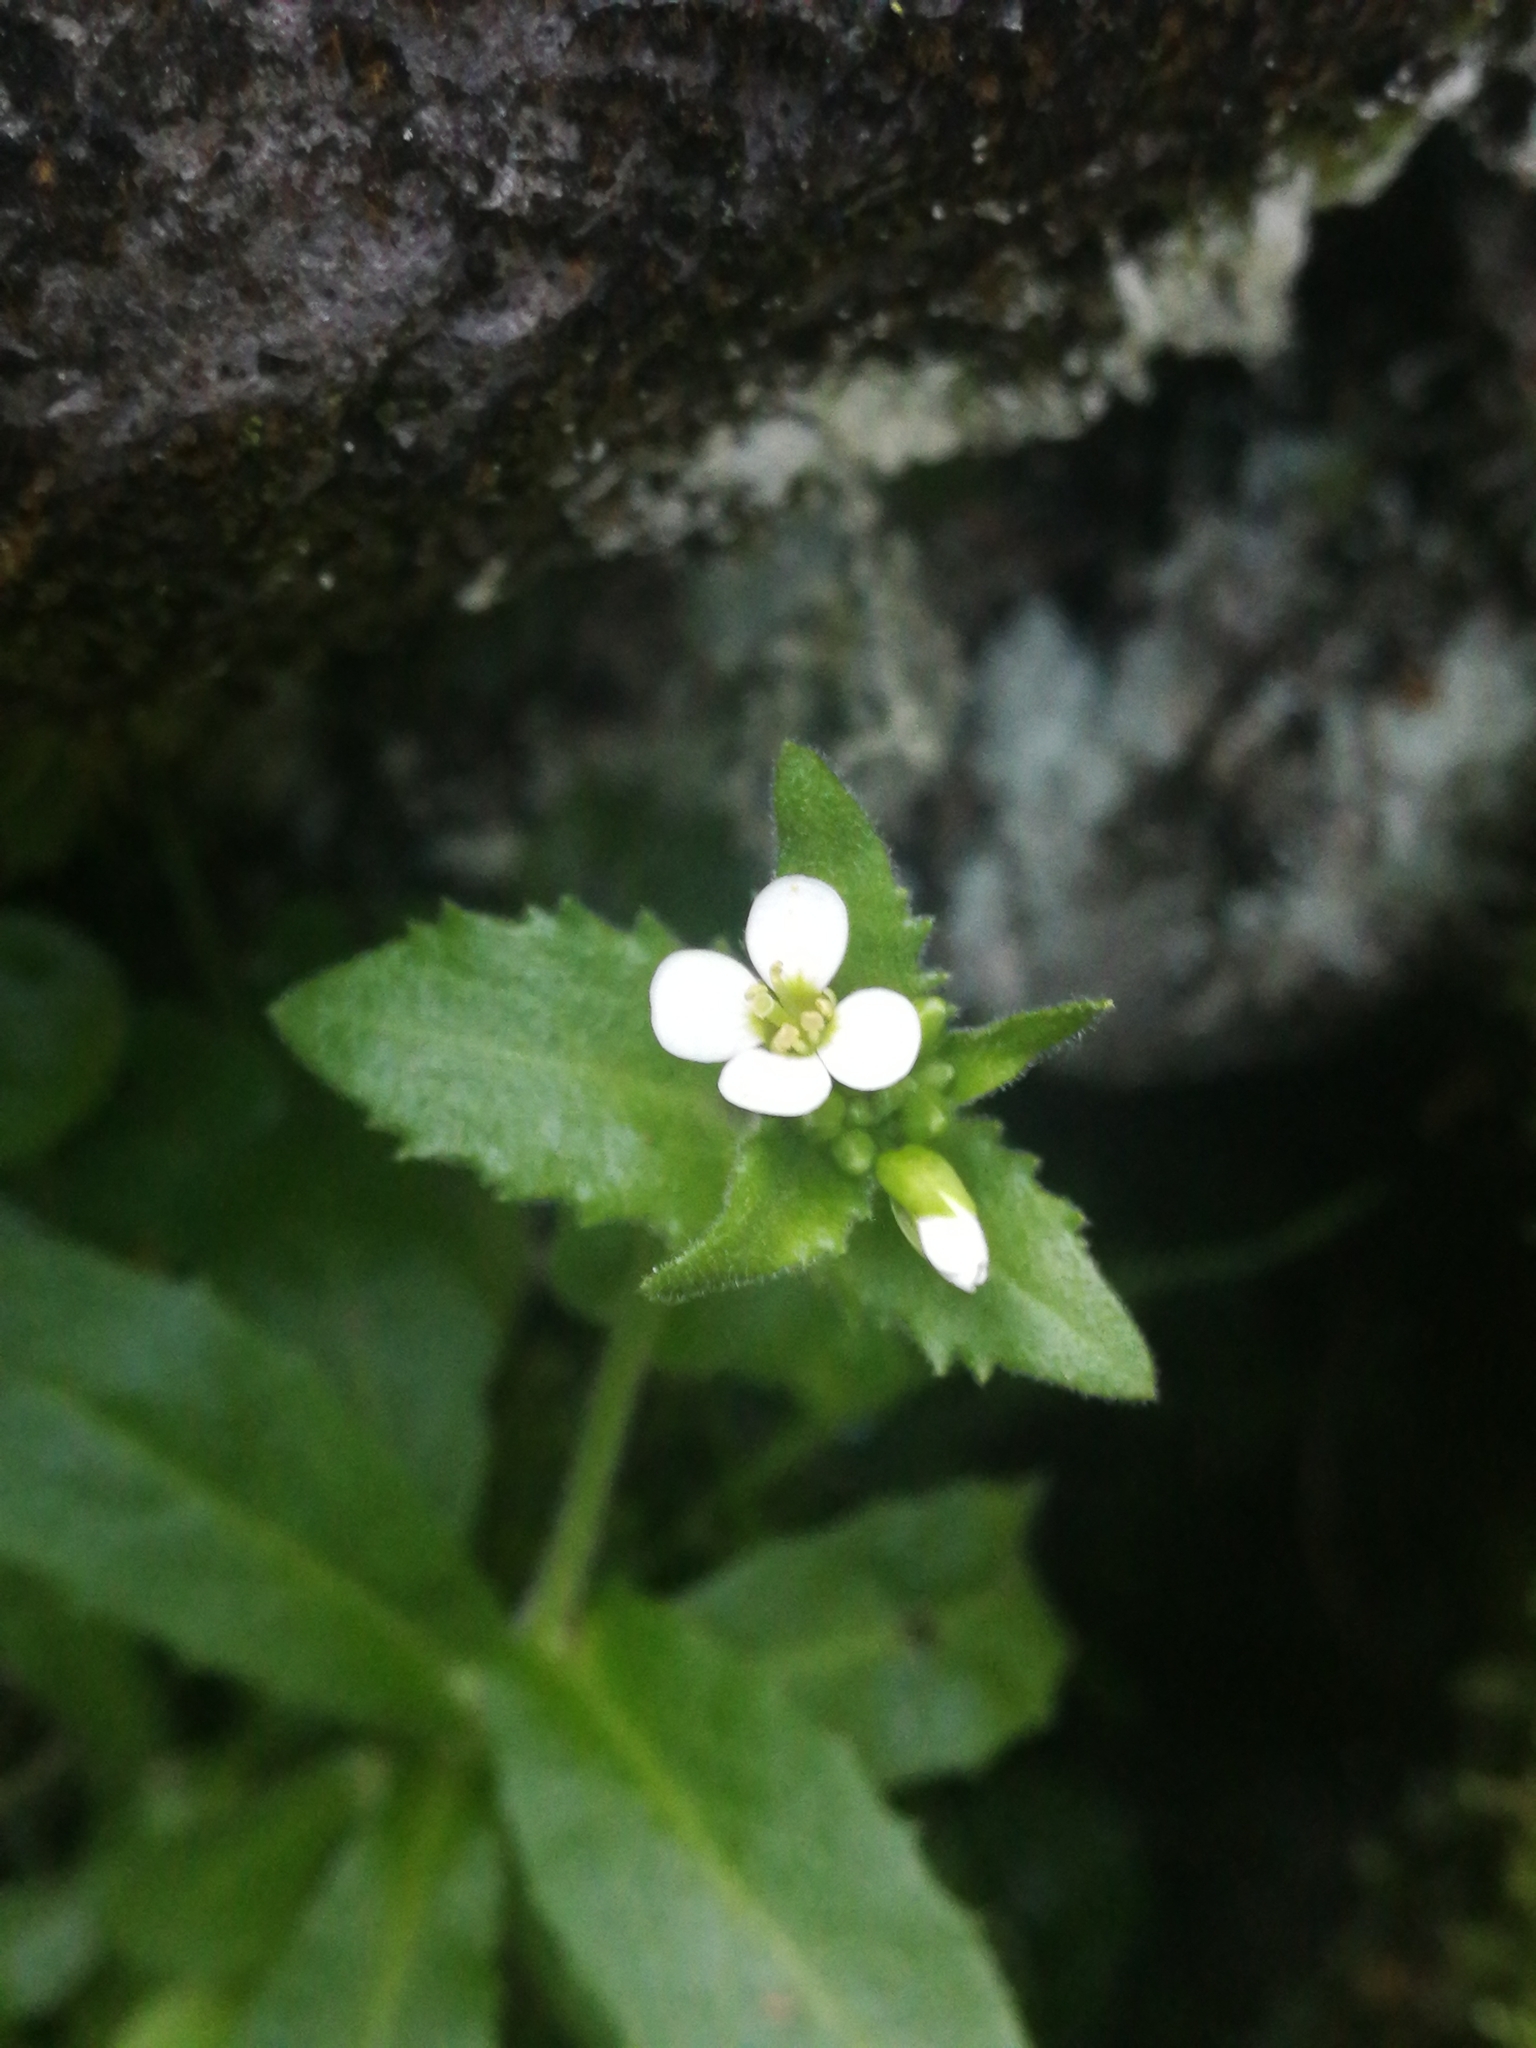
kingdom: Plantae
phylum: Tracheophyta
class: Magnoliopsida
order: Brassicales
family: Brassicaceae
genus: Arabis
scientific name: Arabis alpina
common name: Alpine rock-cress
